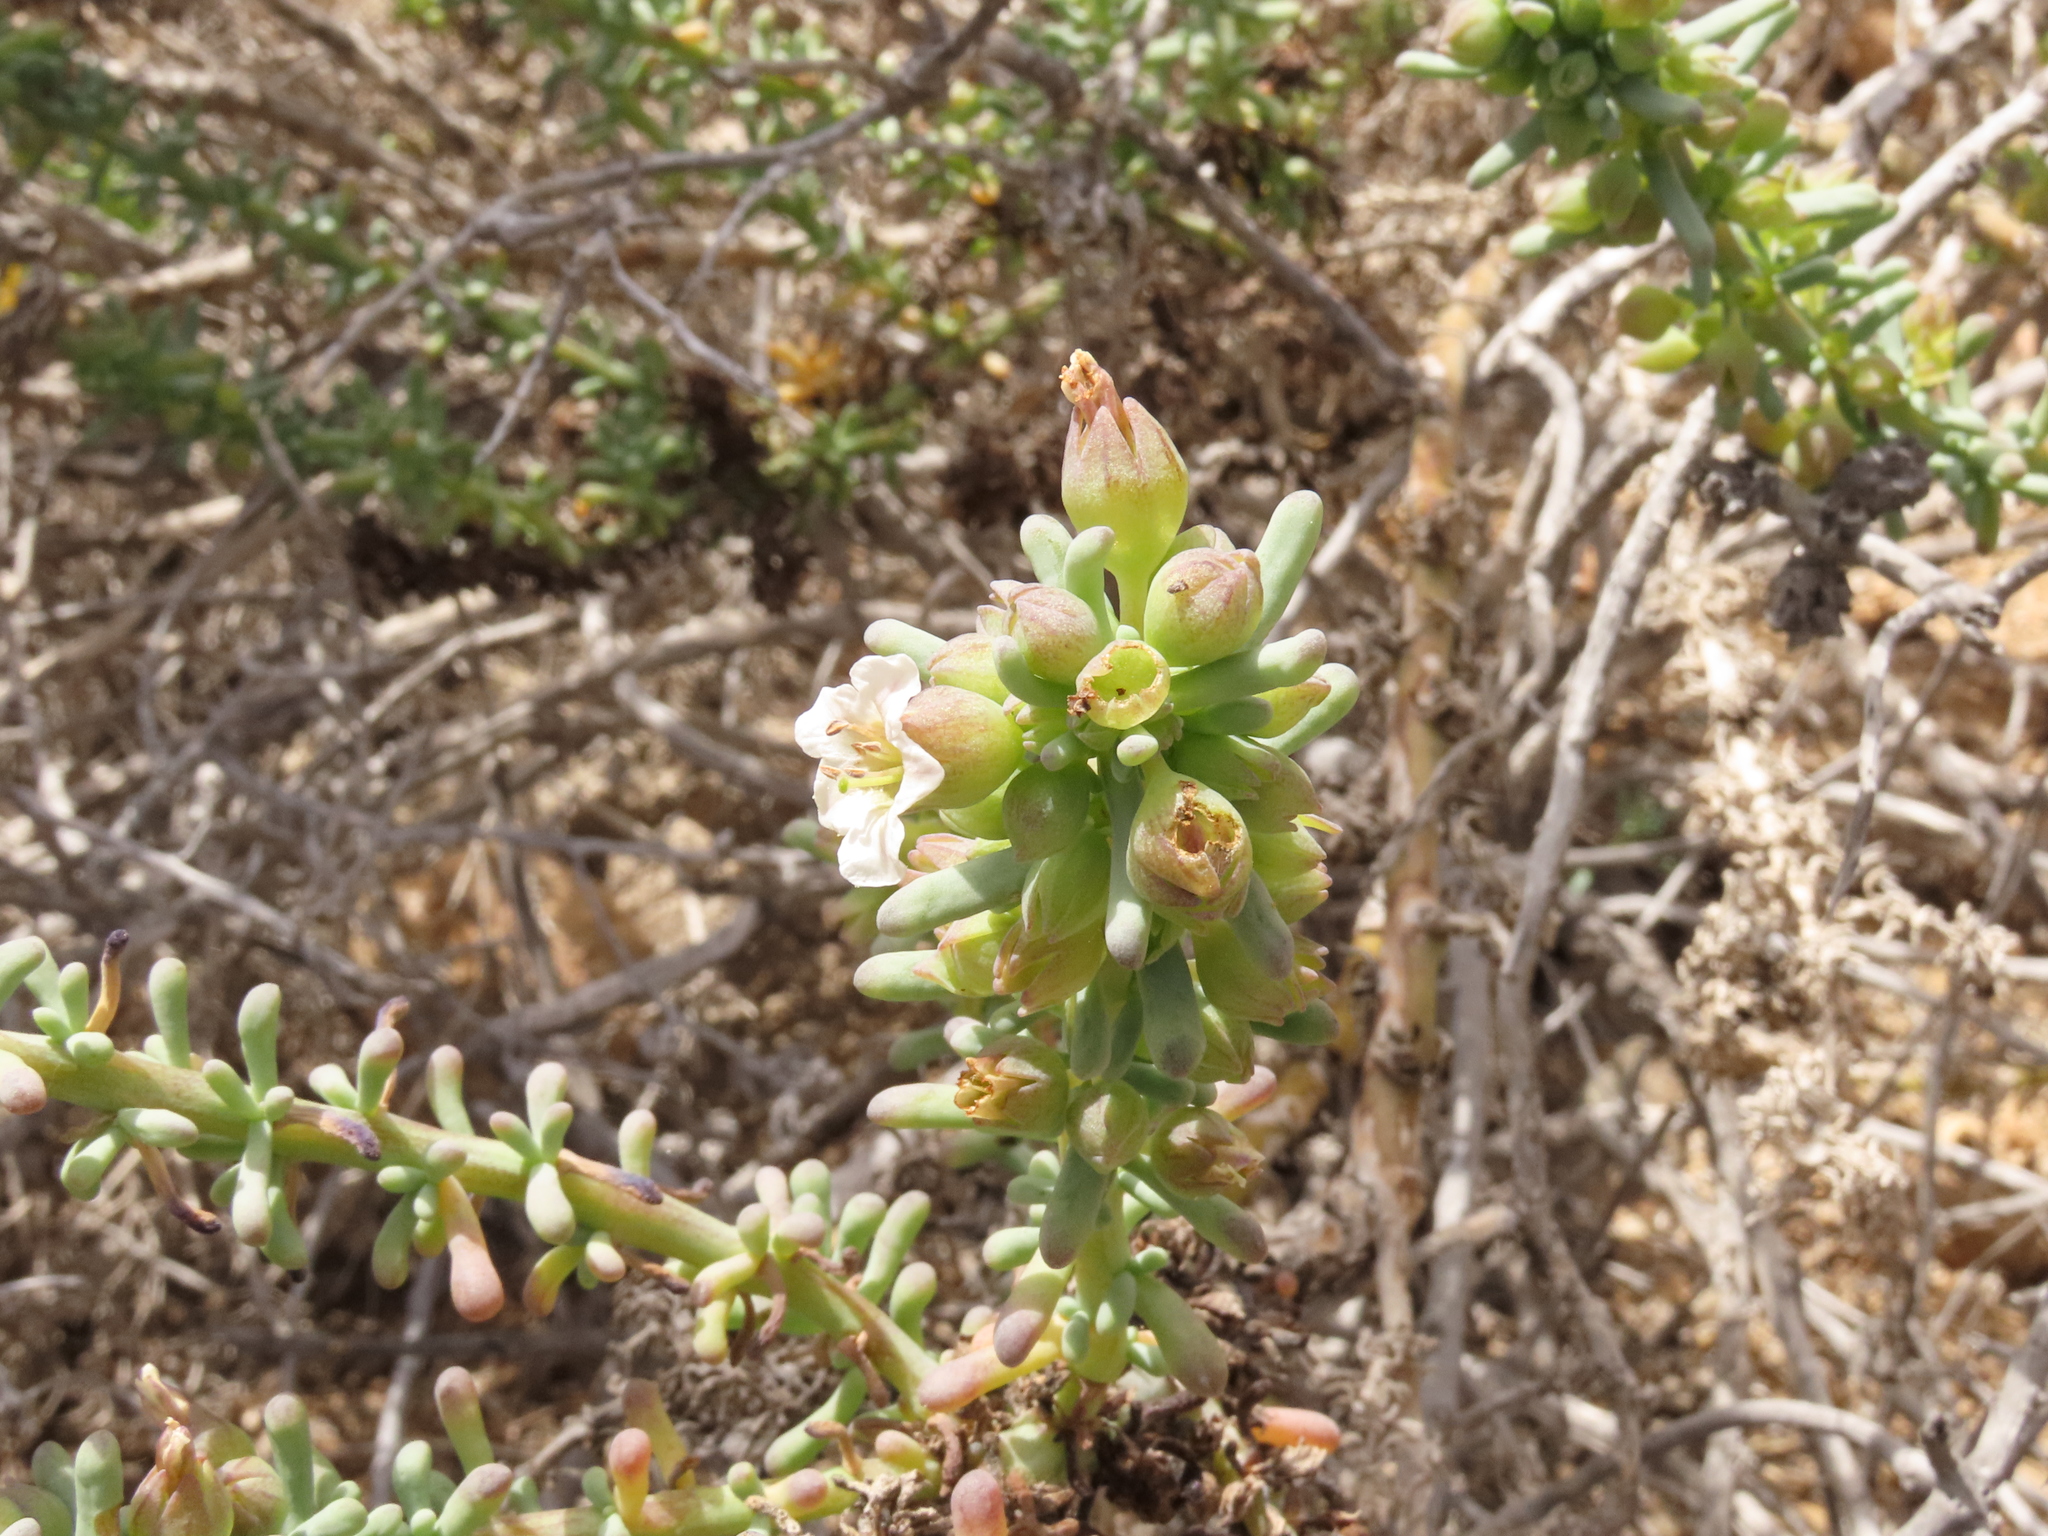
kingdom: Plantae
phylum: Tracheophyta
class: Magnoliopsida
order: Solanales
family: Solanaceae
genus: Nolana
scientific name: Nolana glauca
